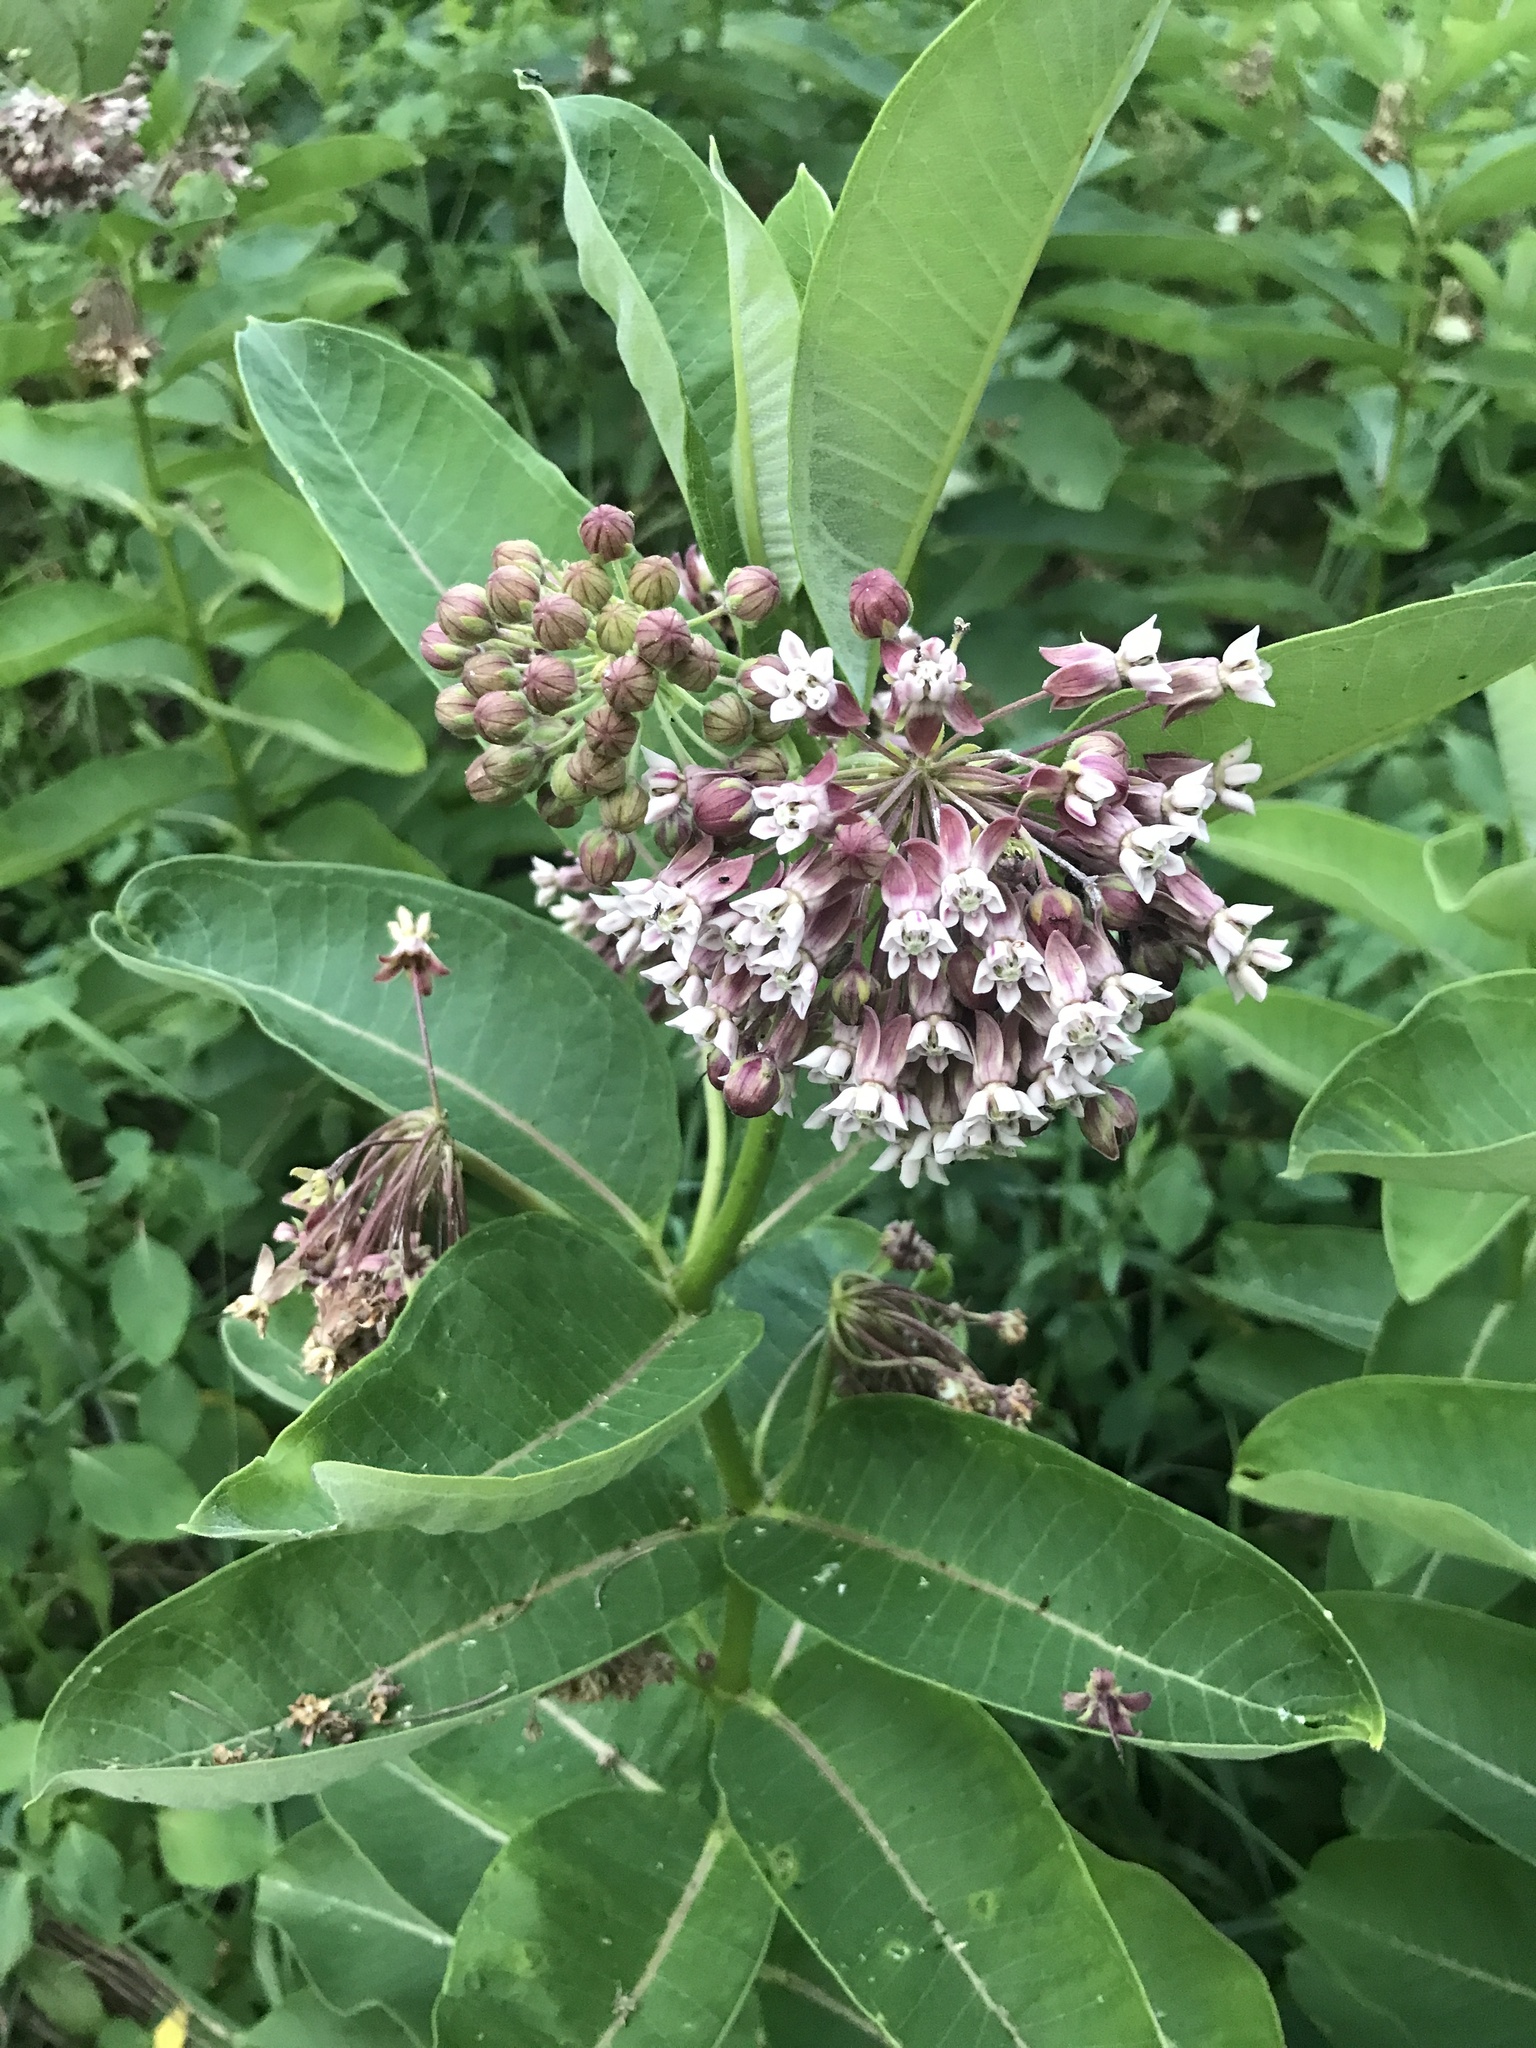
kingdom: Plantae
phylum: Tracheophyta
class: Magnoliopsida
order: Gentianales
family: Apocynaceae
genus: Asclepias
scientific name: Asclepias syriaca
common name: Common milkweed
